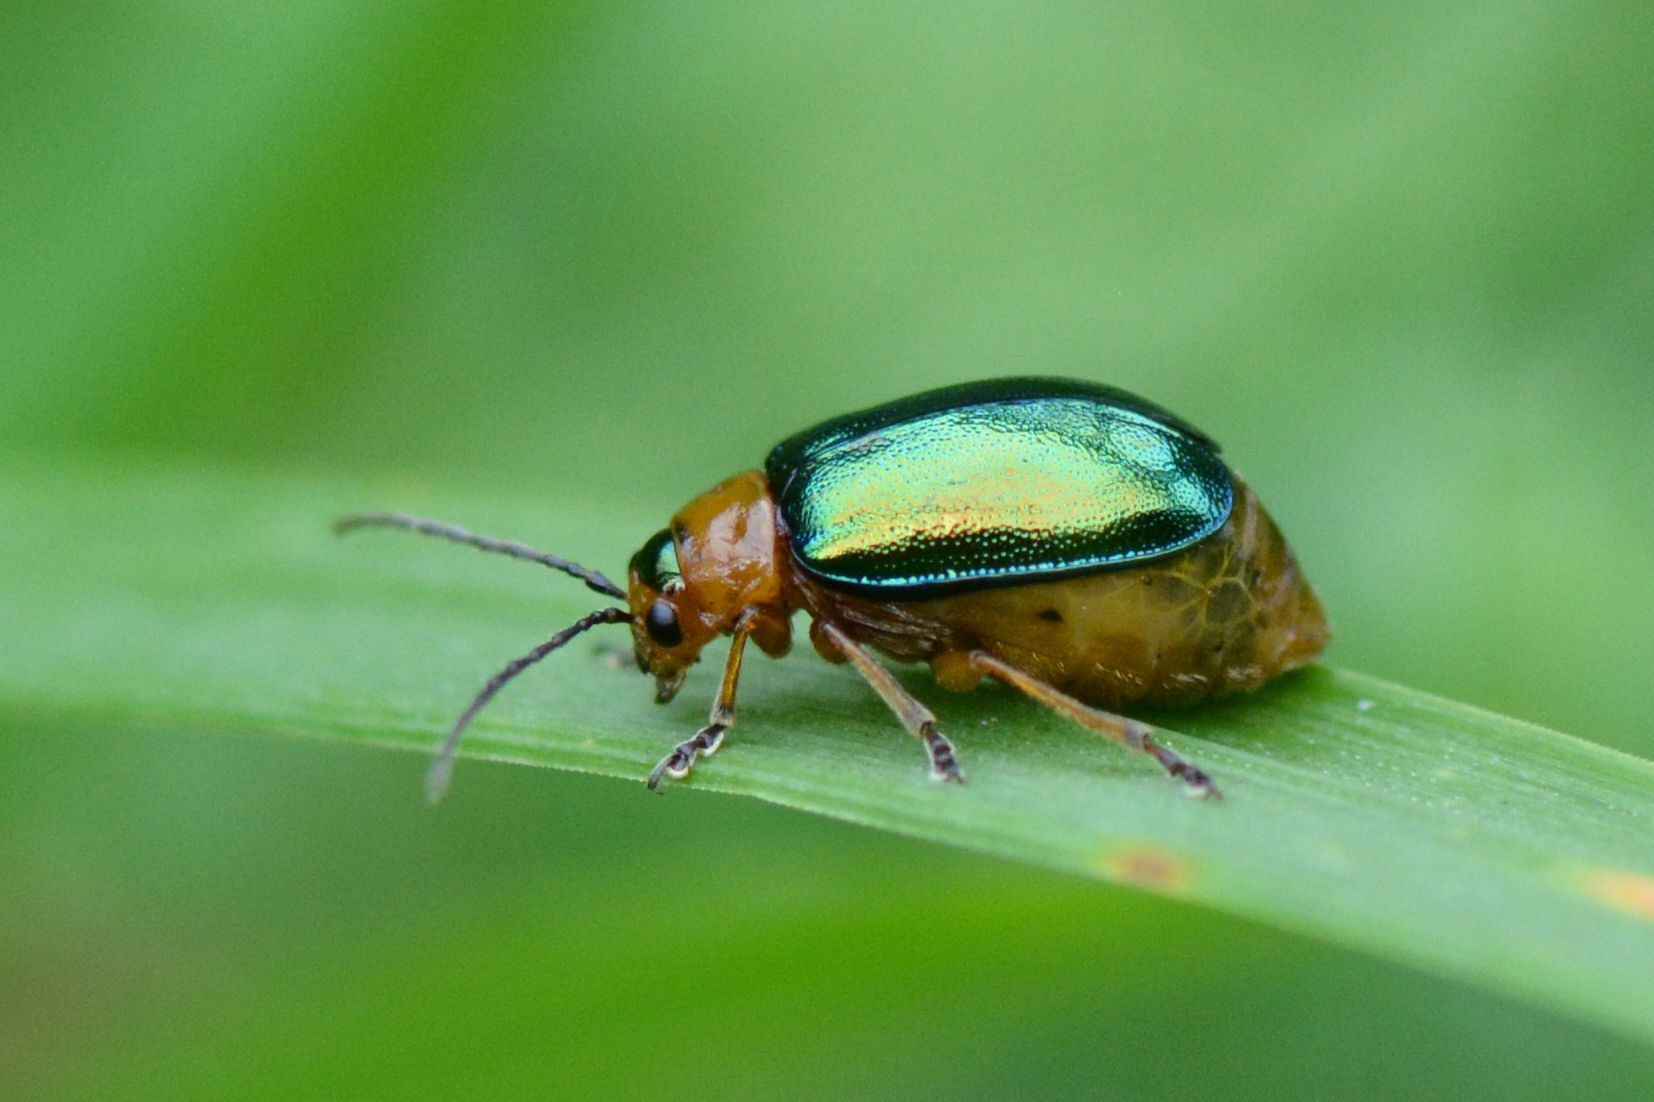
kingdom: Animalia
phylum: Arthropoda
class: Insecta
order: Coleoptera
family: Chrysomelidae
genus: Sermylassa
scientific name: Sermylassa halensis
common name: Leaf beetle
